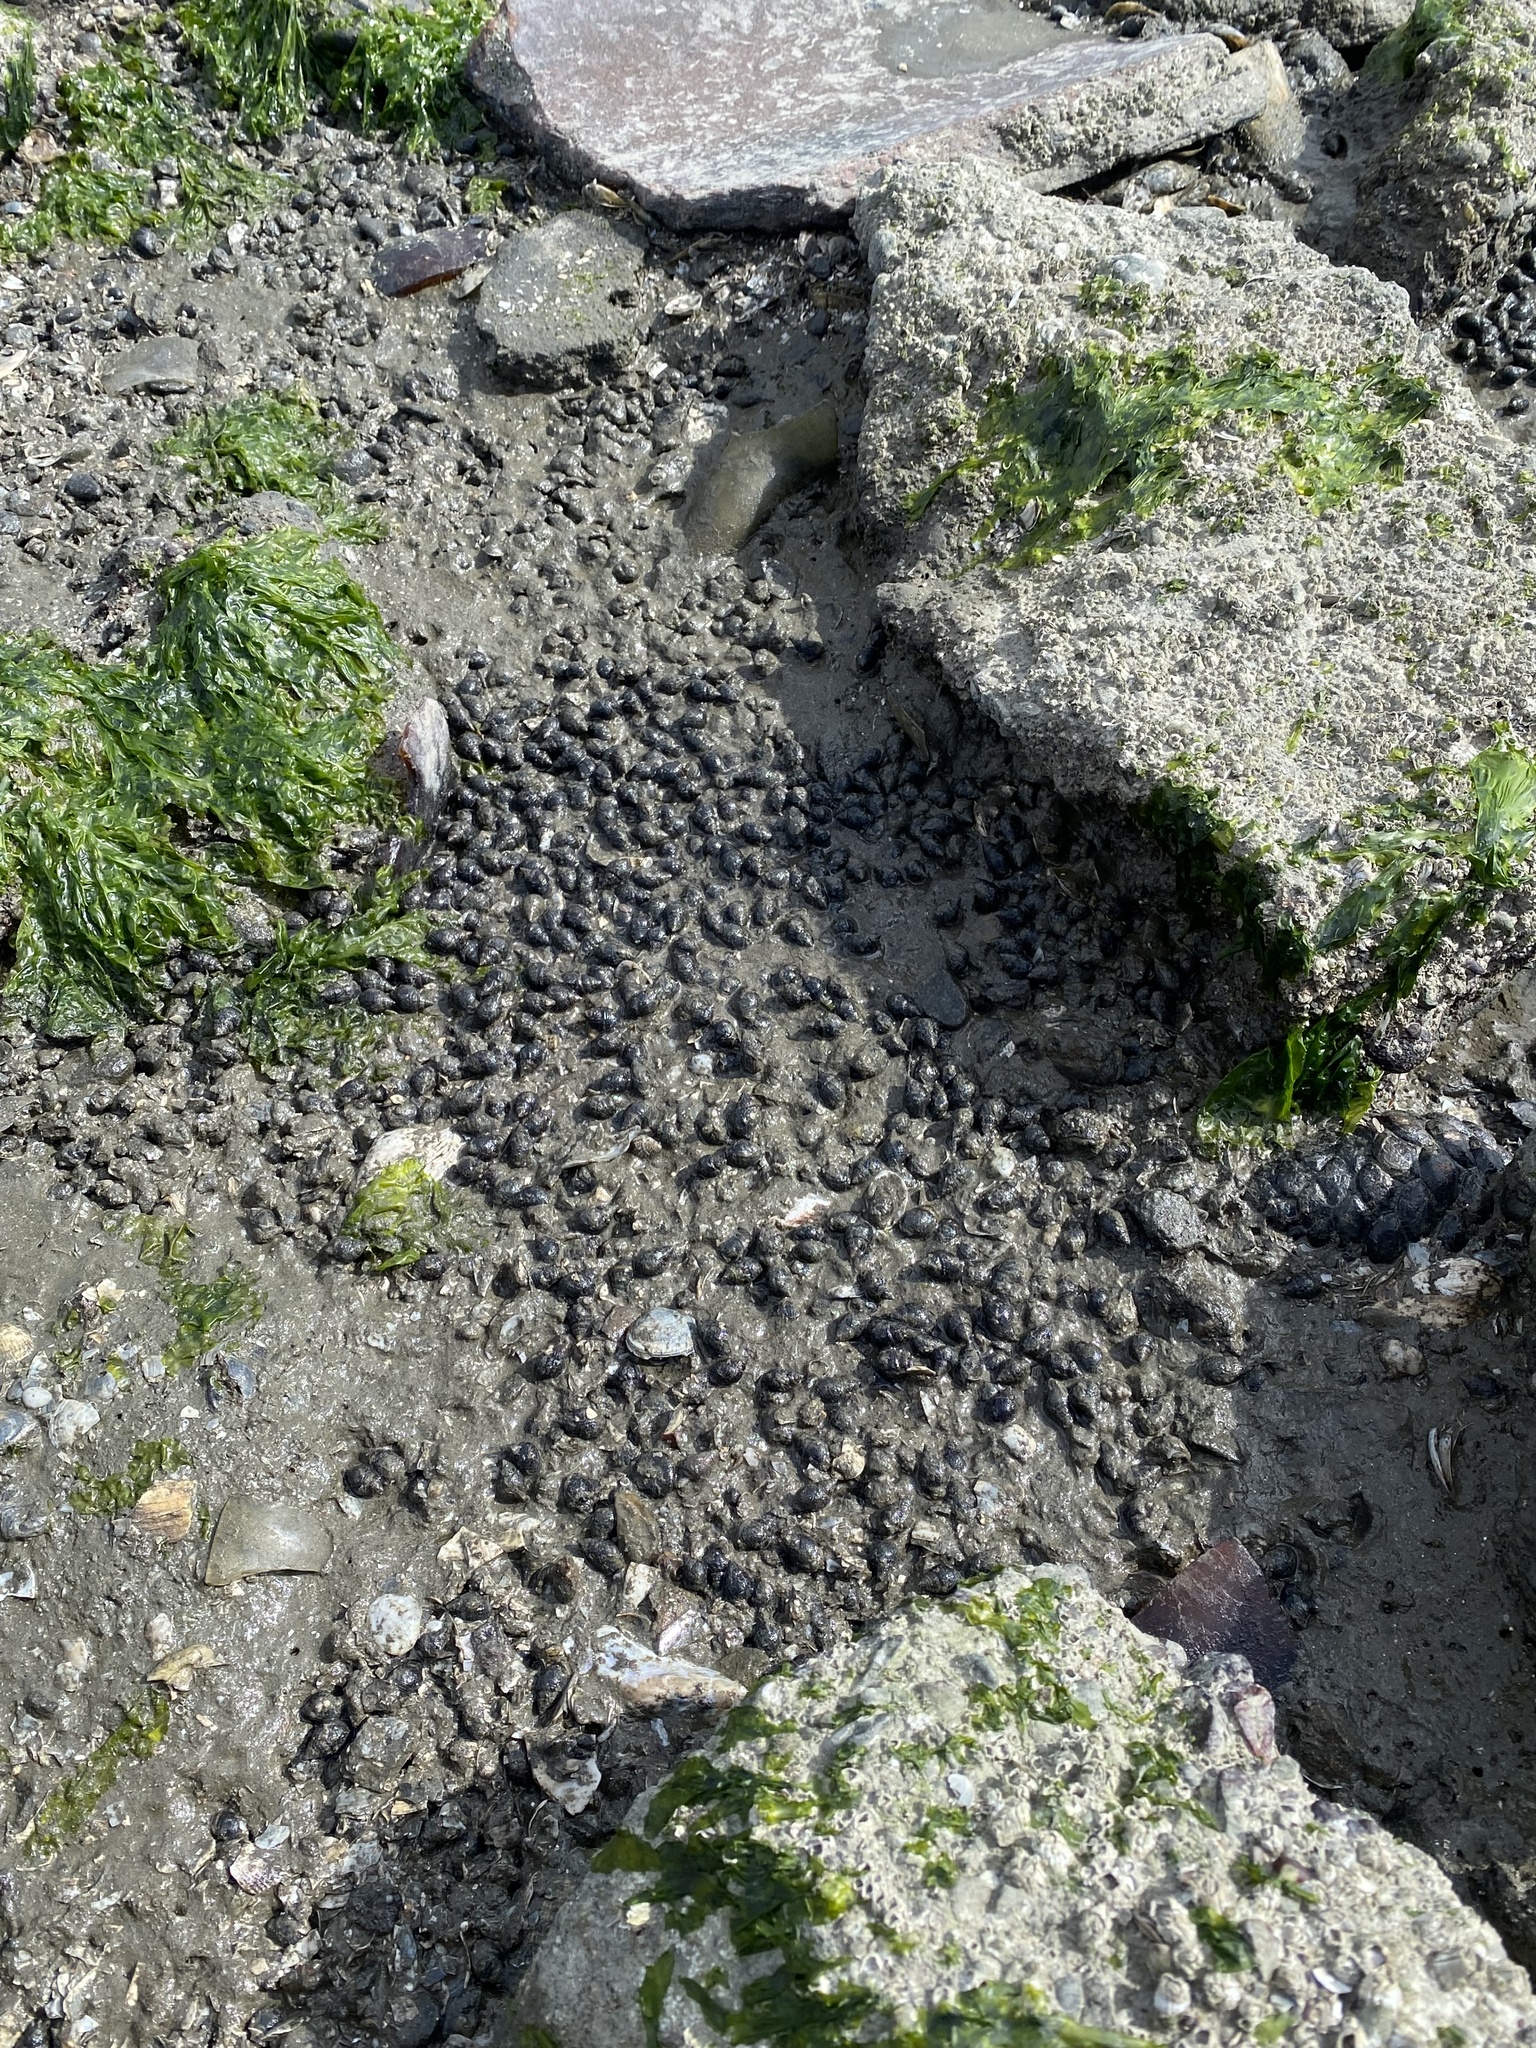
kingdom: Animalia
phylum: Mollusca
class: Gastropoda
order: Neogastropoda
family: Nassariidae
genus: Ilyanassa
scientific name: Ilyanassa obsoleta
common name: Eastern mudsnail
